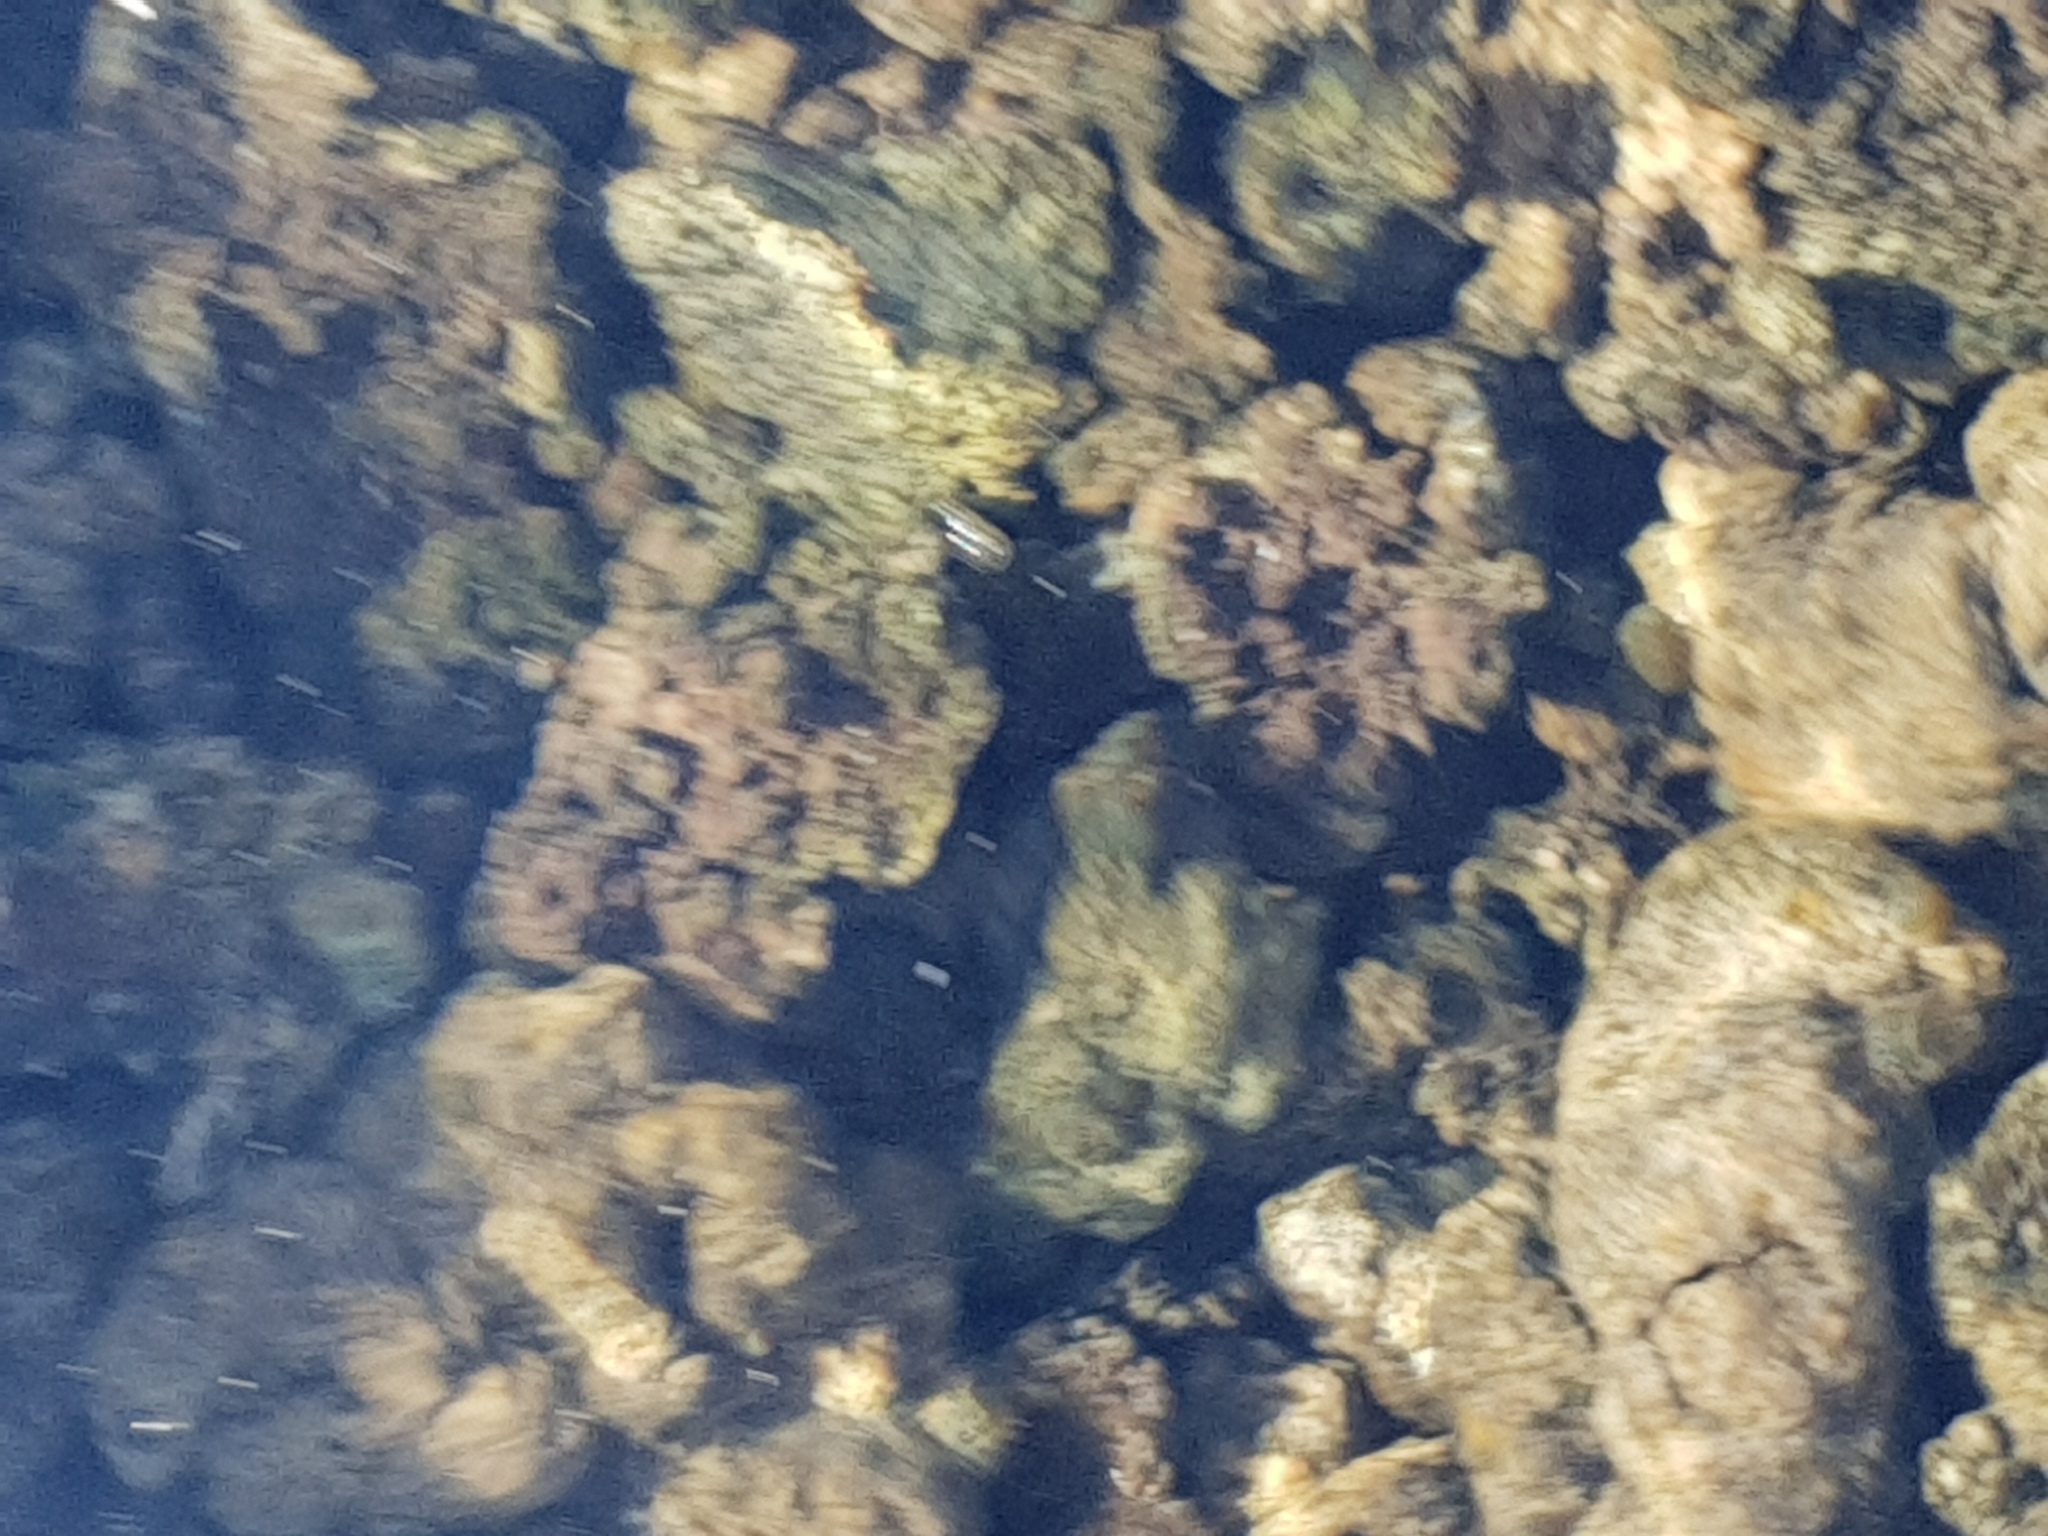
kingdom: Bacteria
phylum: Cyanobacteria
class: Cyanobacteriia
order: Cyanobacteriales
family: Nostocaceae
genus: Nostoc
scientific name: Nostoc
